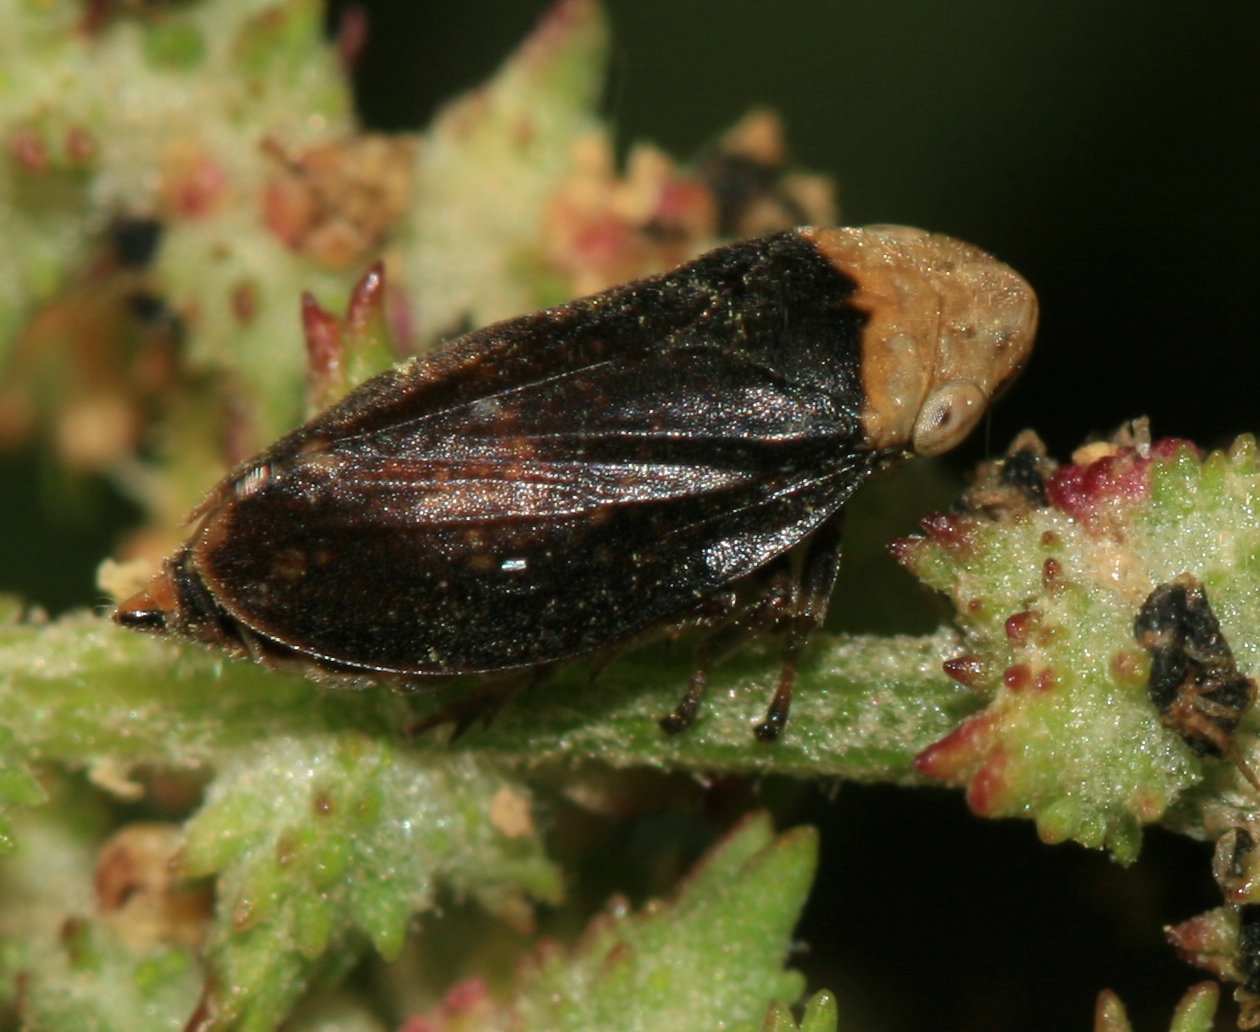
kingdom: Animalia
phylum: Arthropoda
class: Insecta
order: Hemiptera
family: Aphrophoridae
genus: Philaenus
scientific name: Philaenus spumarius
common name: Meadow spittlebug
